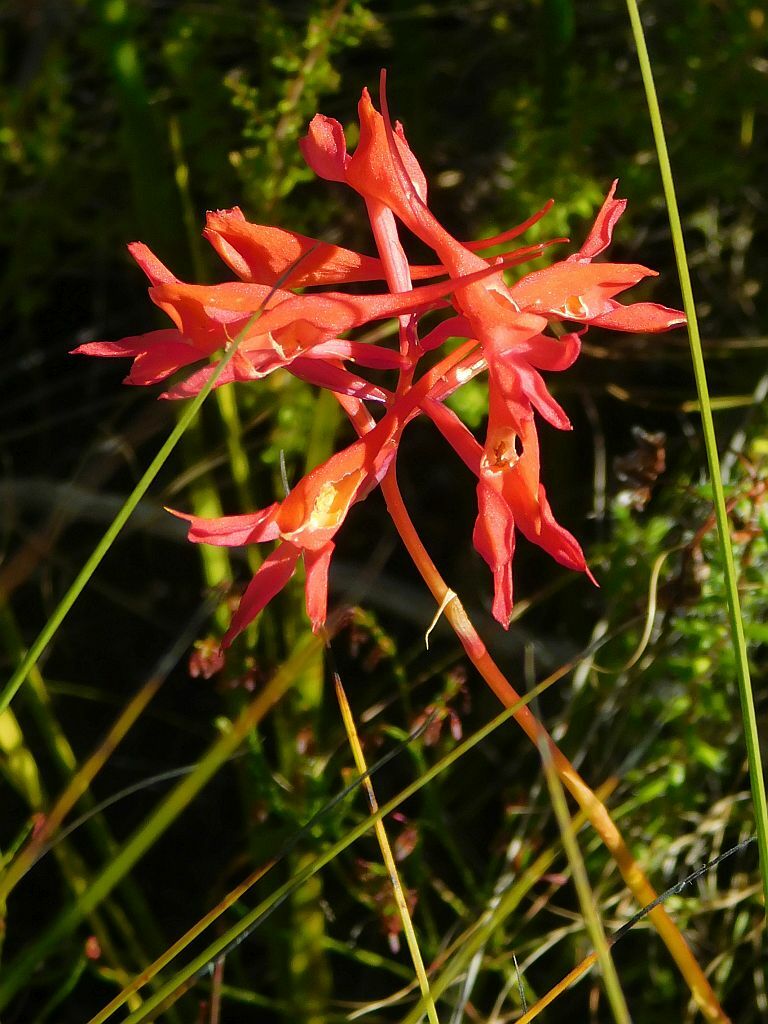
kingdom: Plantae
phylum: Tracheophyta
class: Liliopsida
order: Asparagales
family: Orchidaceae
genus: Disa
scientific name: Disa ferruginea
